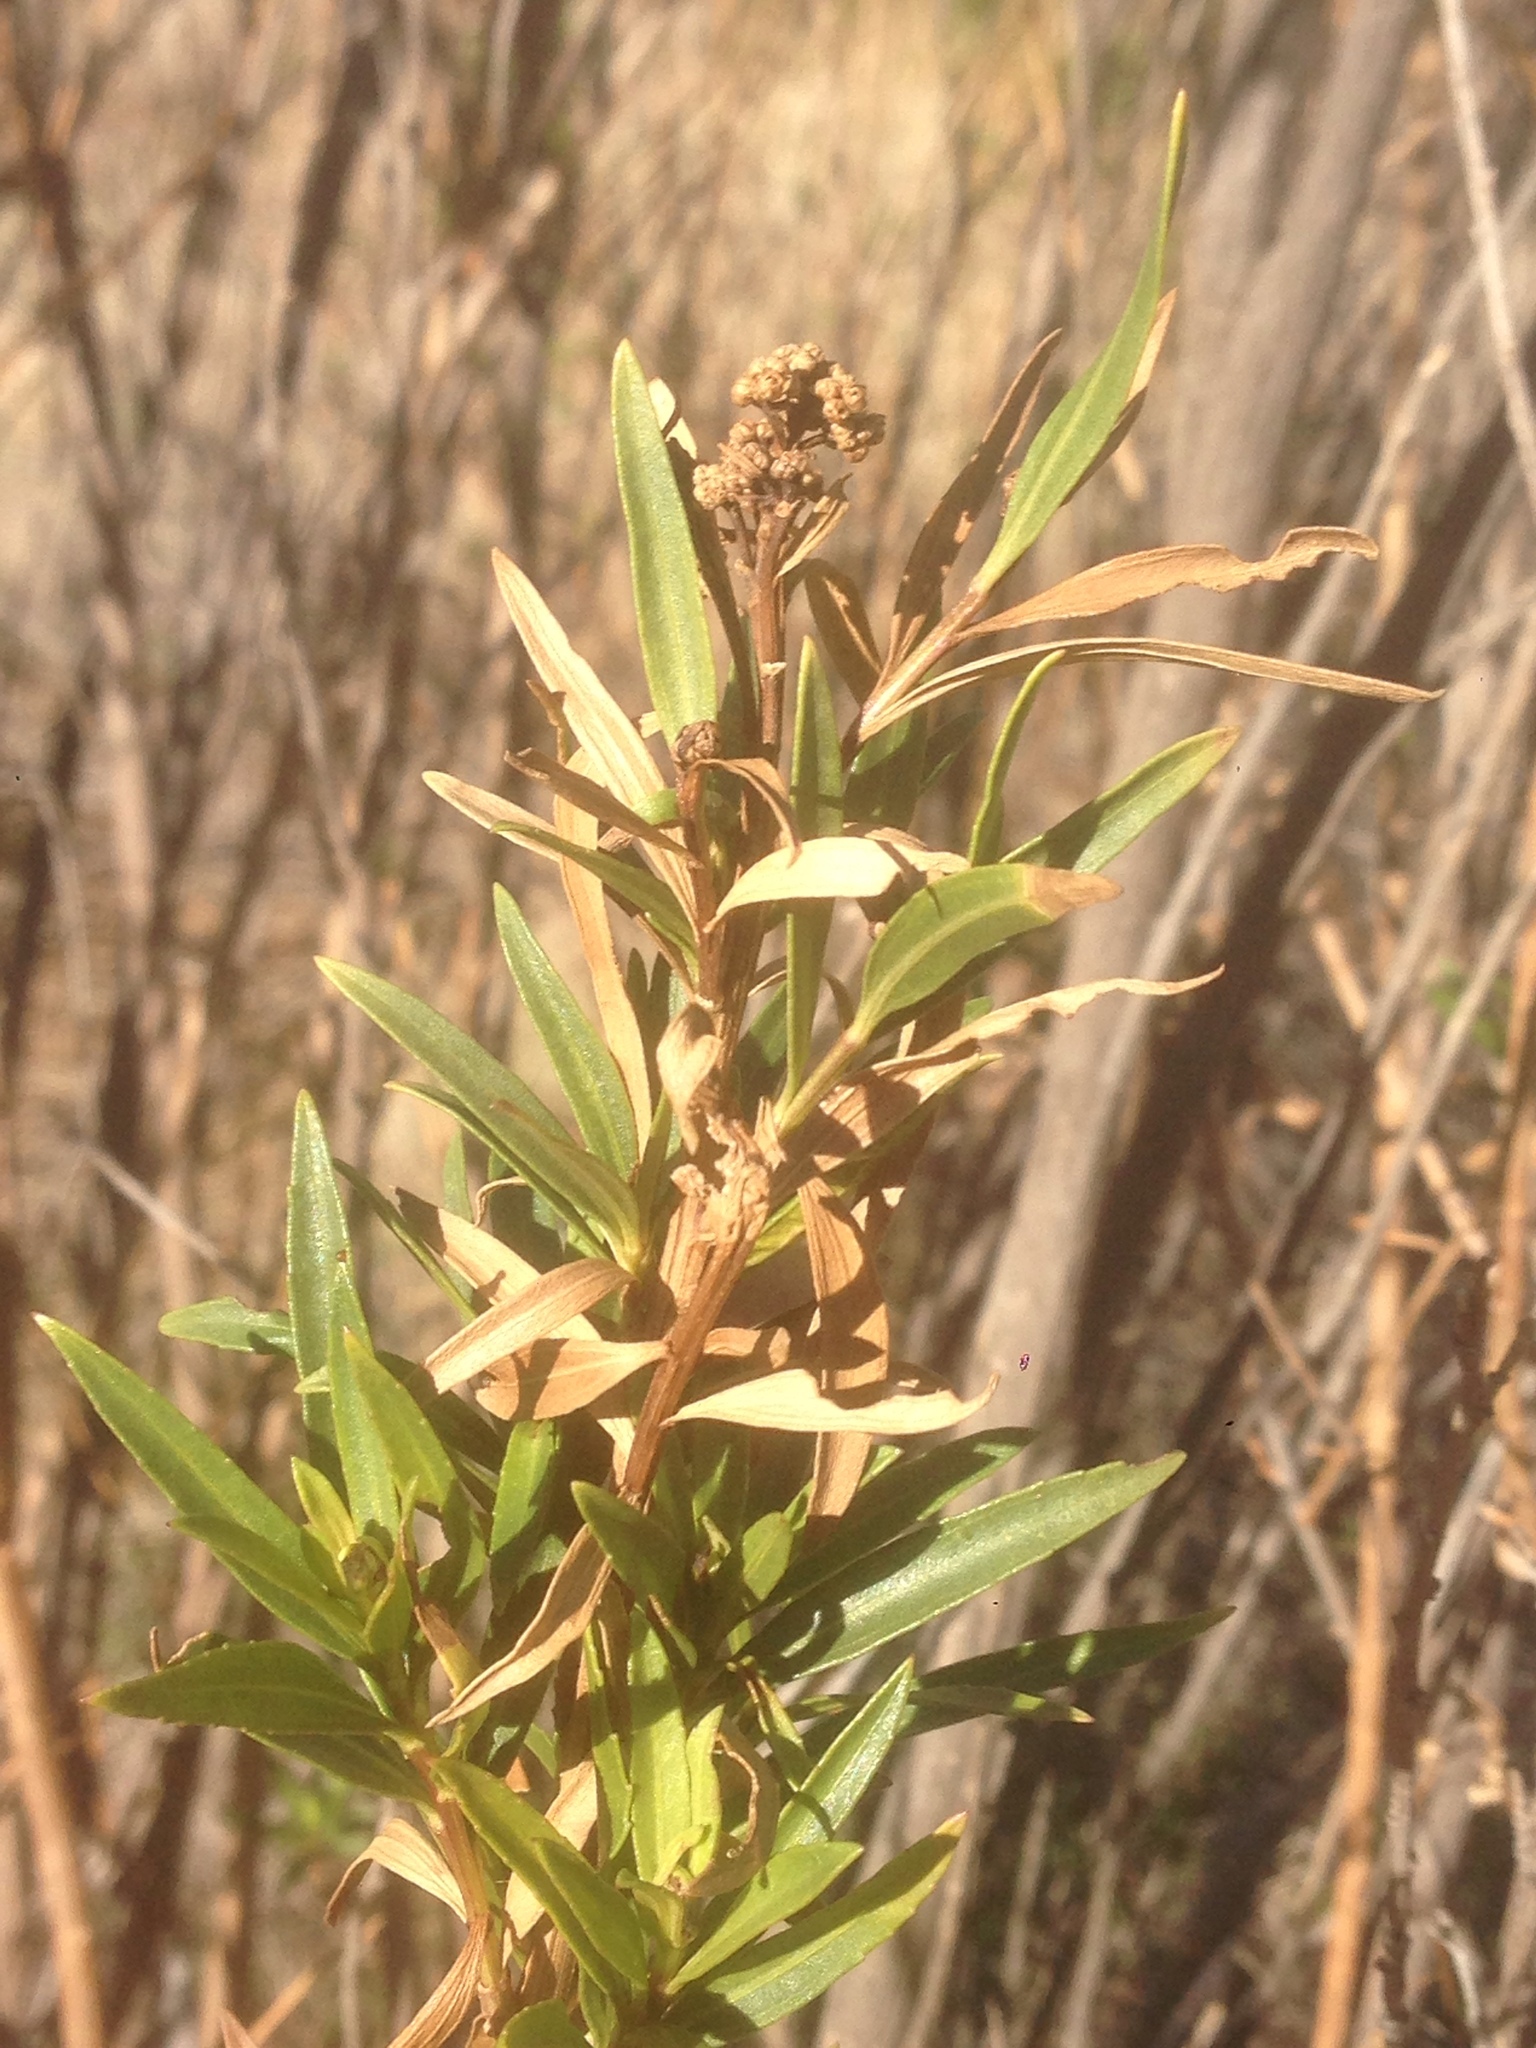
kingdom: Plantae
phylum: Tracheophyta
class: Magnoliopsida
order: Asterales
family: Asteraceae
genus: Baccharis
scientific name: Baccharis salicifolia
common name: Sticky baccharis
